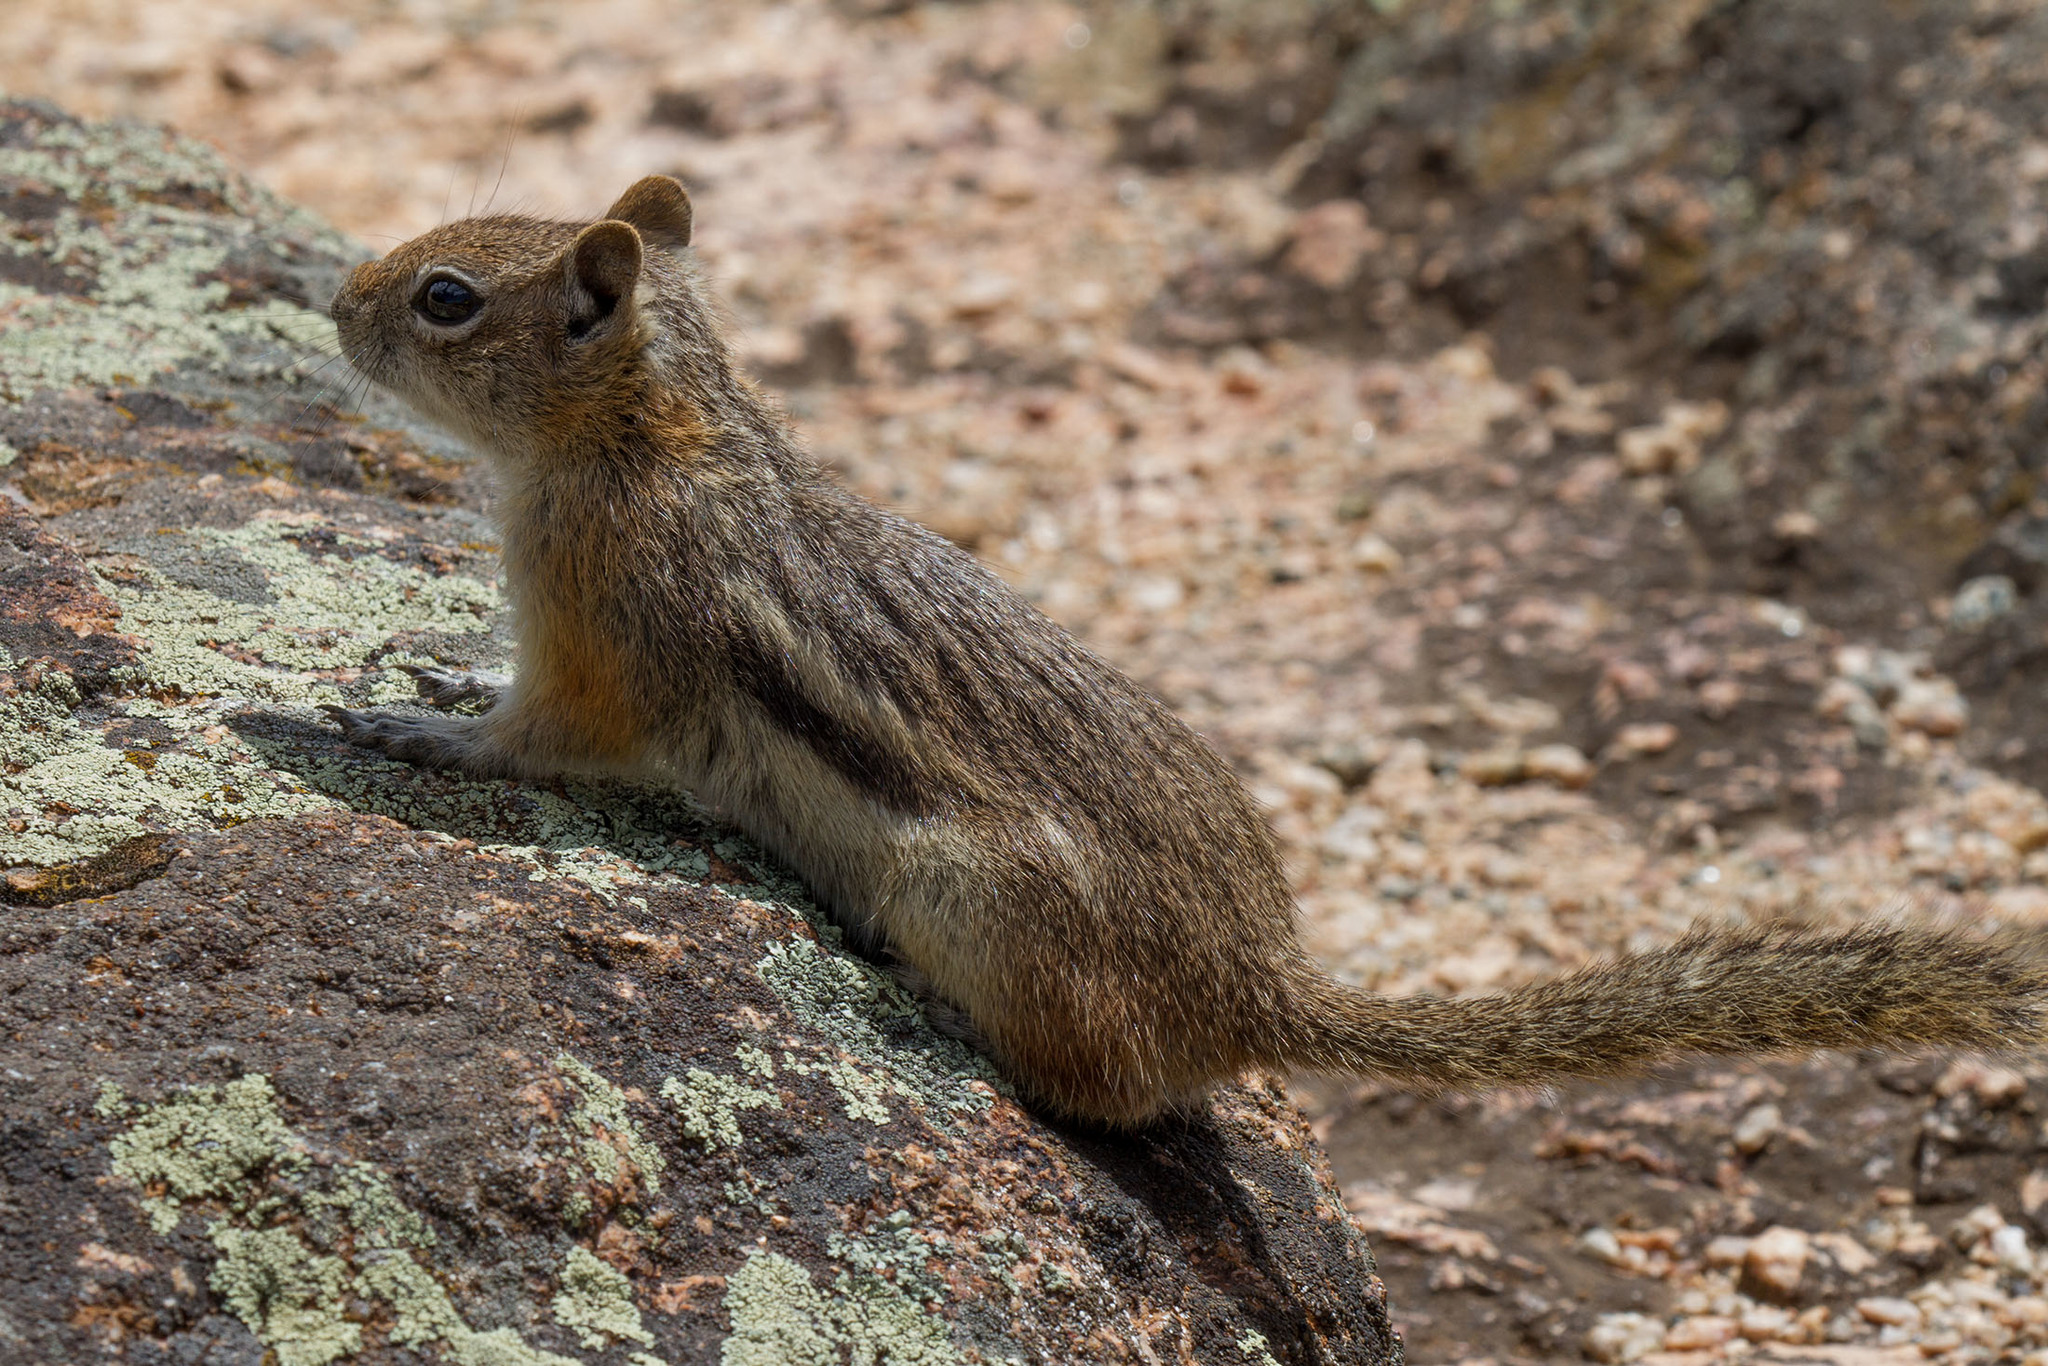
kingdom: Animalia
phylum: Chordata
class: Mammalia
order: Rodentia
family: Sciuridae
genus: Callospermophilus
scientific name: Callospermophilus lateralis
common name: Golden-mantled ground squirrel
